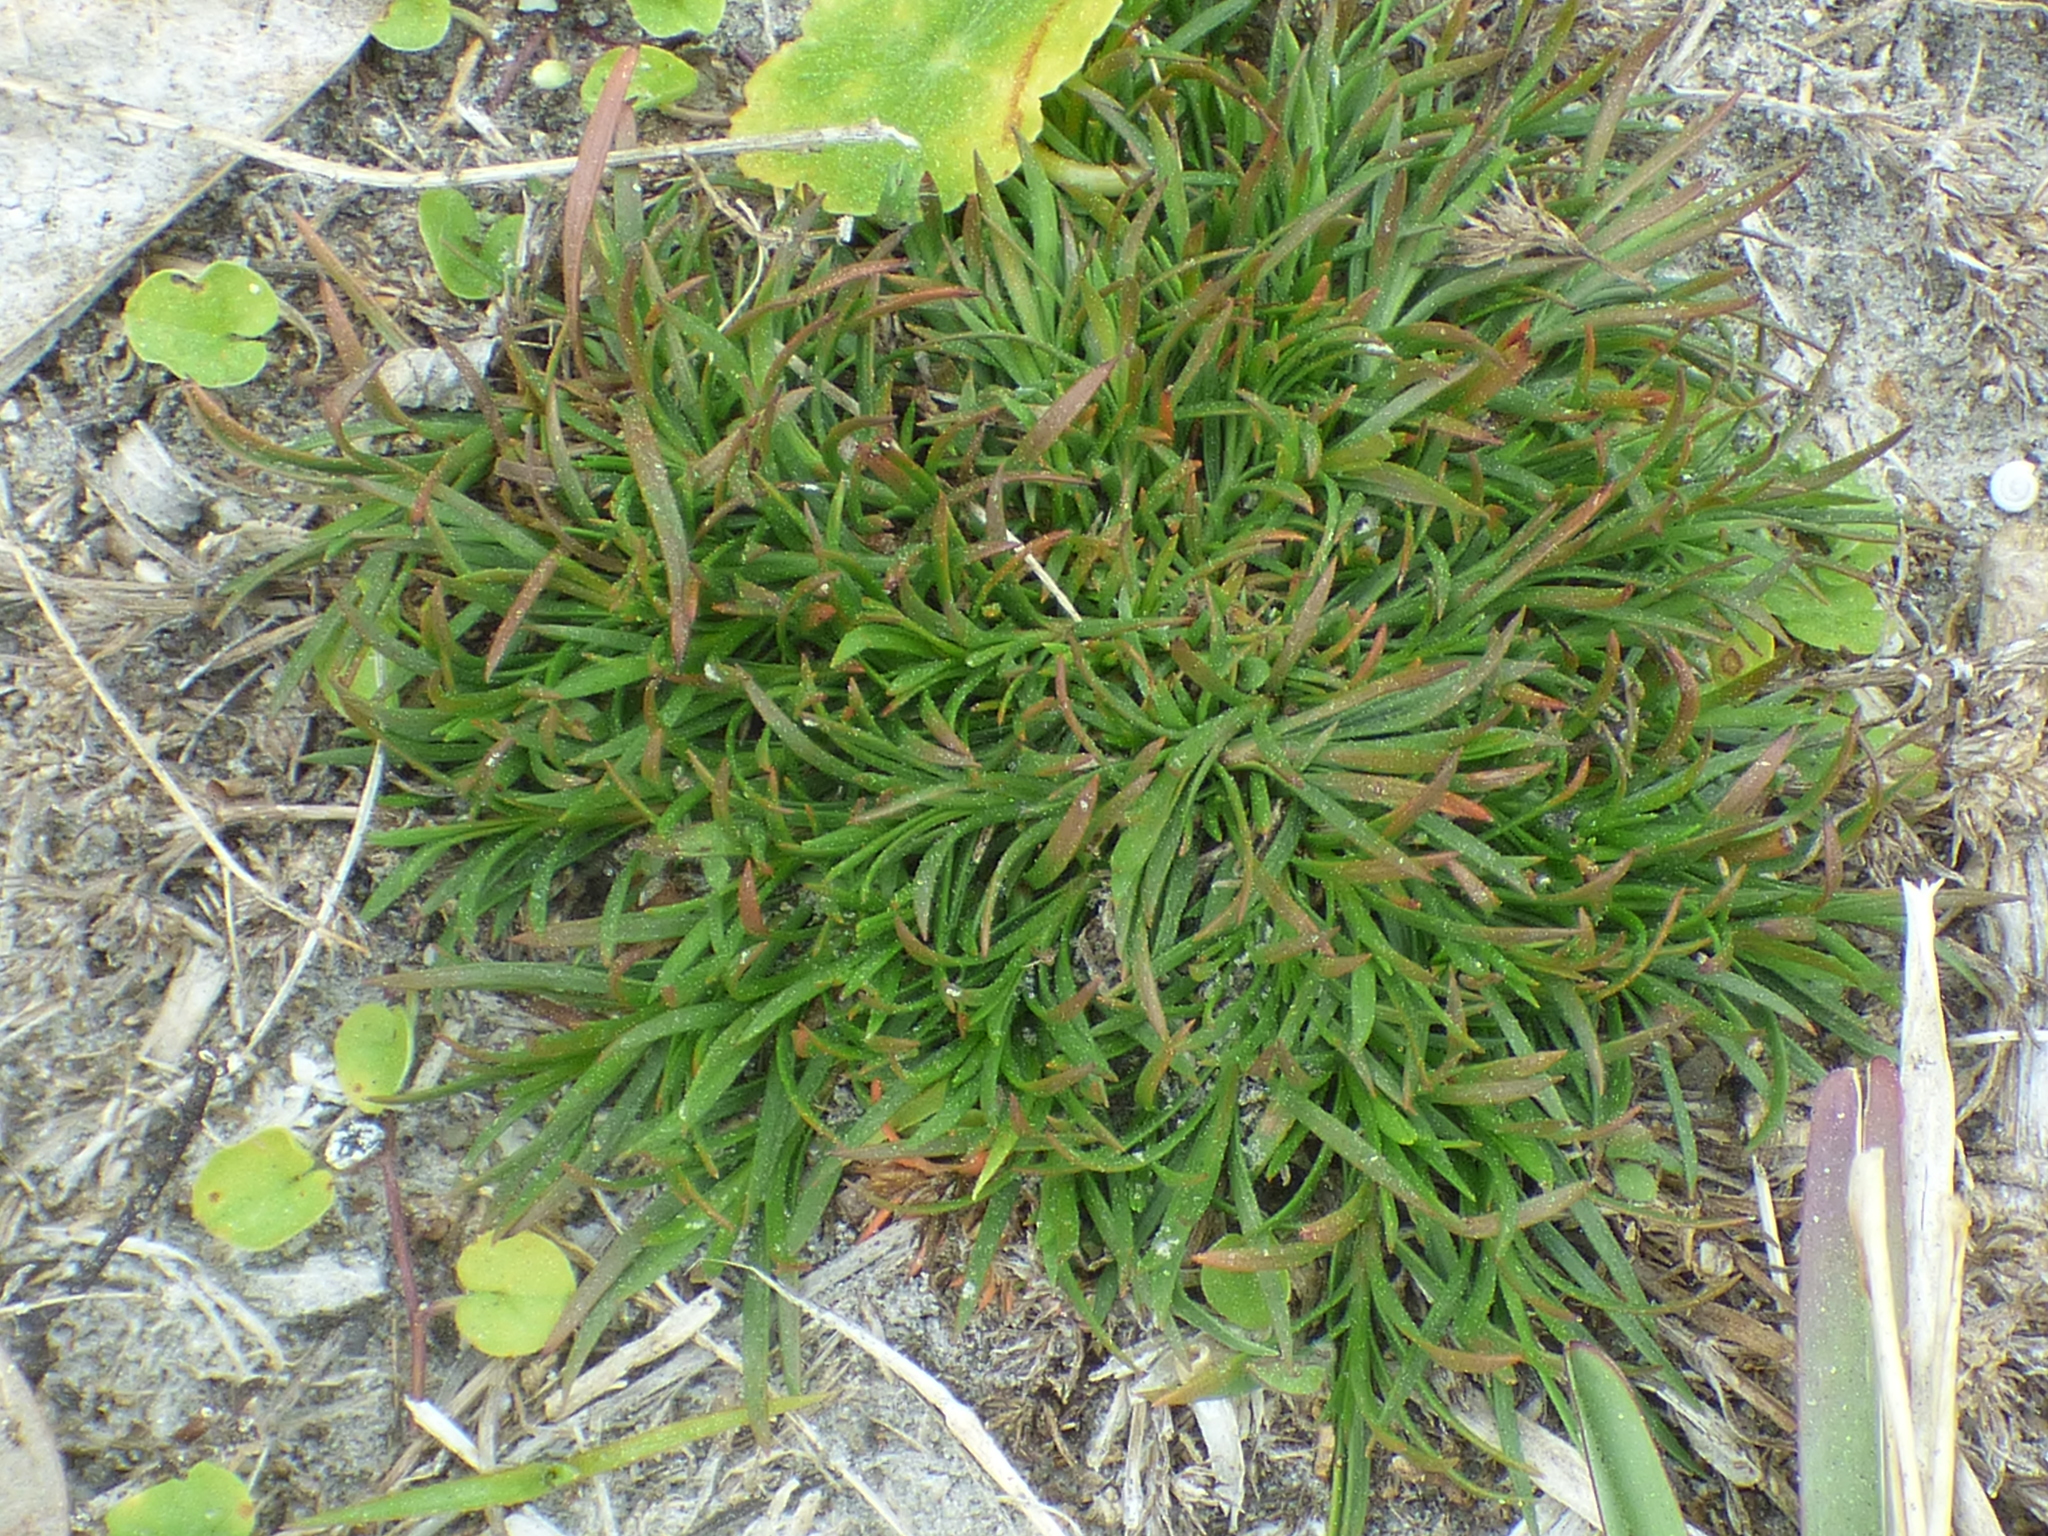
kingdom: Plantae
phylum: Tracheophyta
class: Magnoliopsida
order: Lamiales
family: Tetrachondraceae
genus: Polypremum
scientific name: Polypremum procumbens
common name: Juniper-leaf
